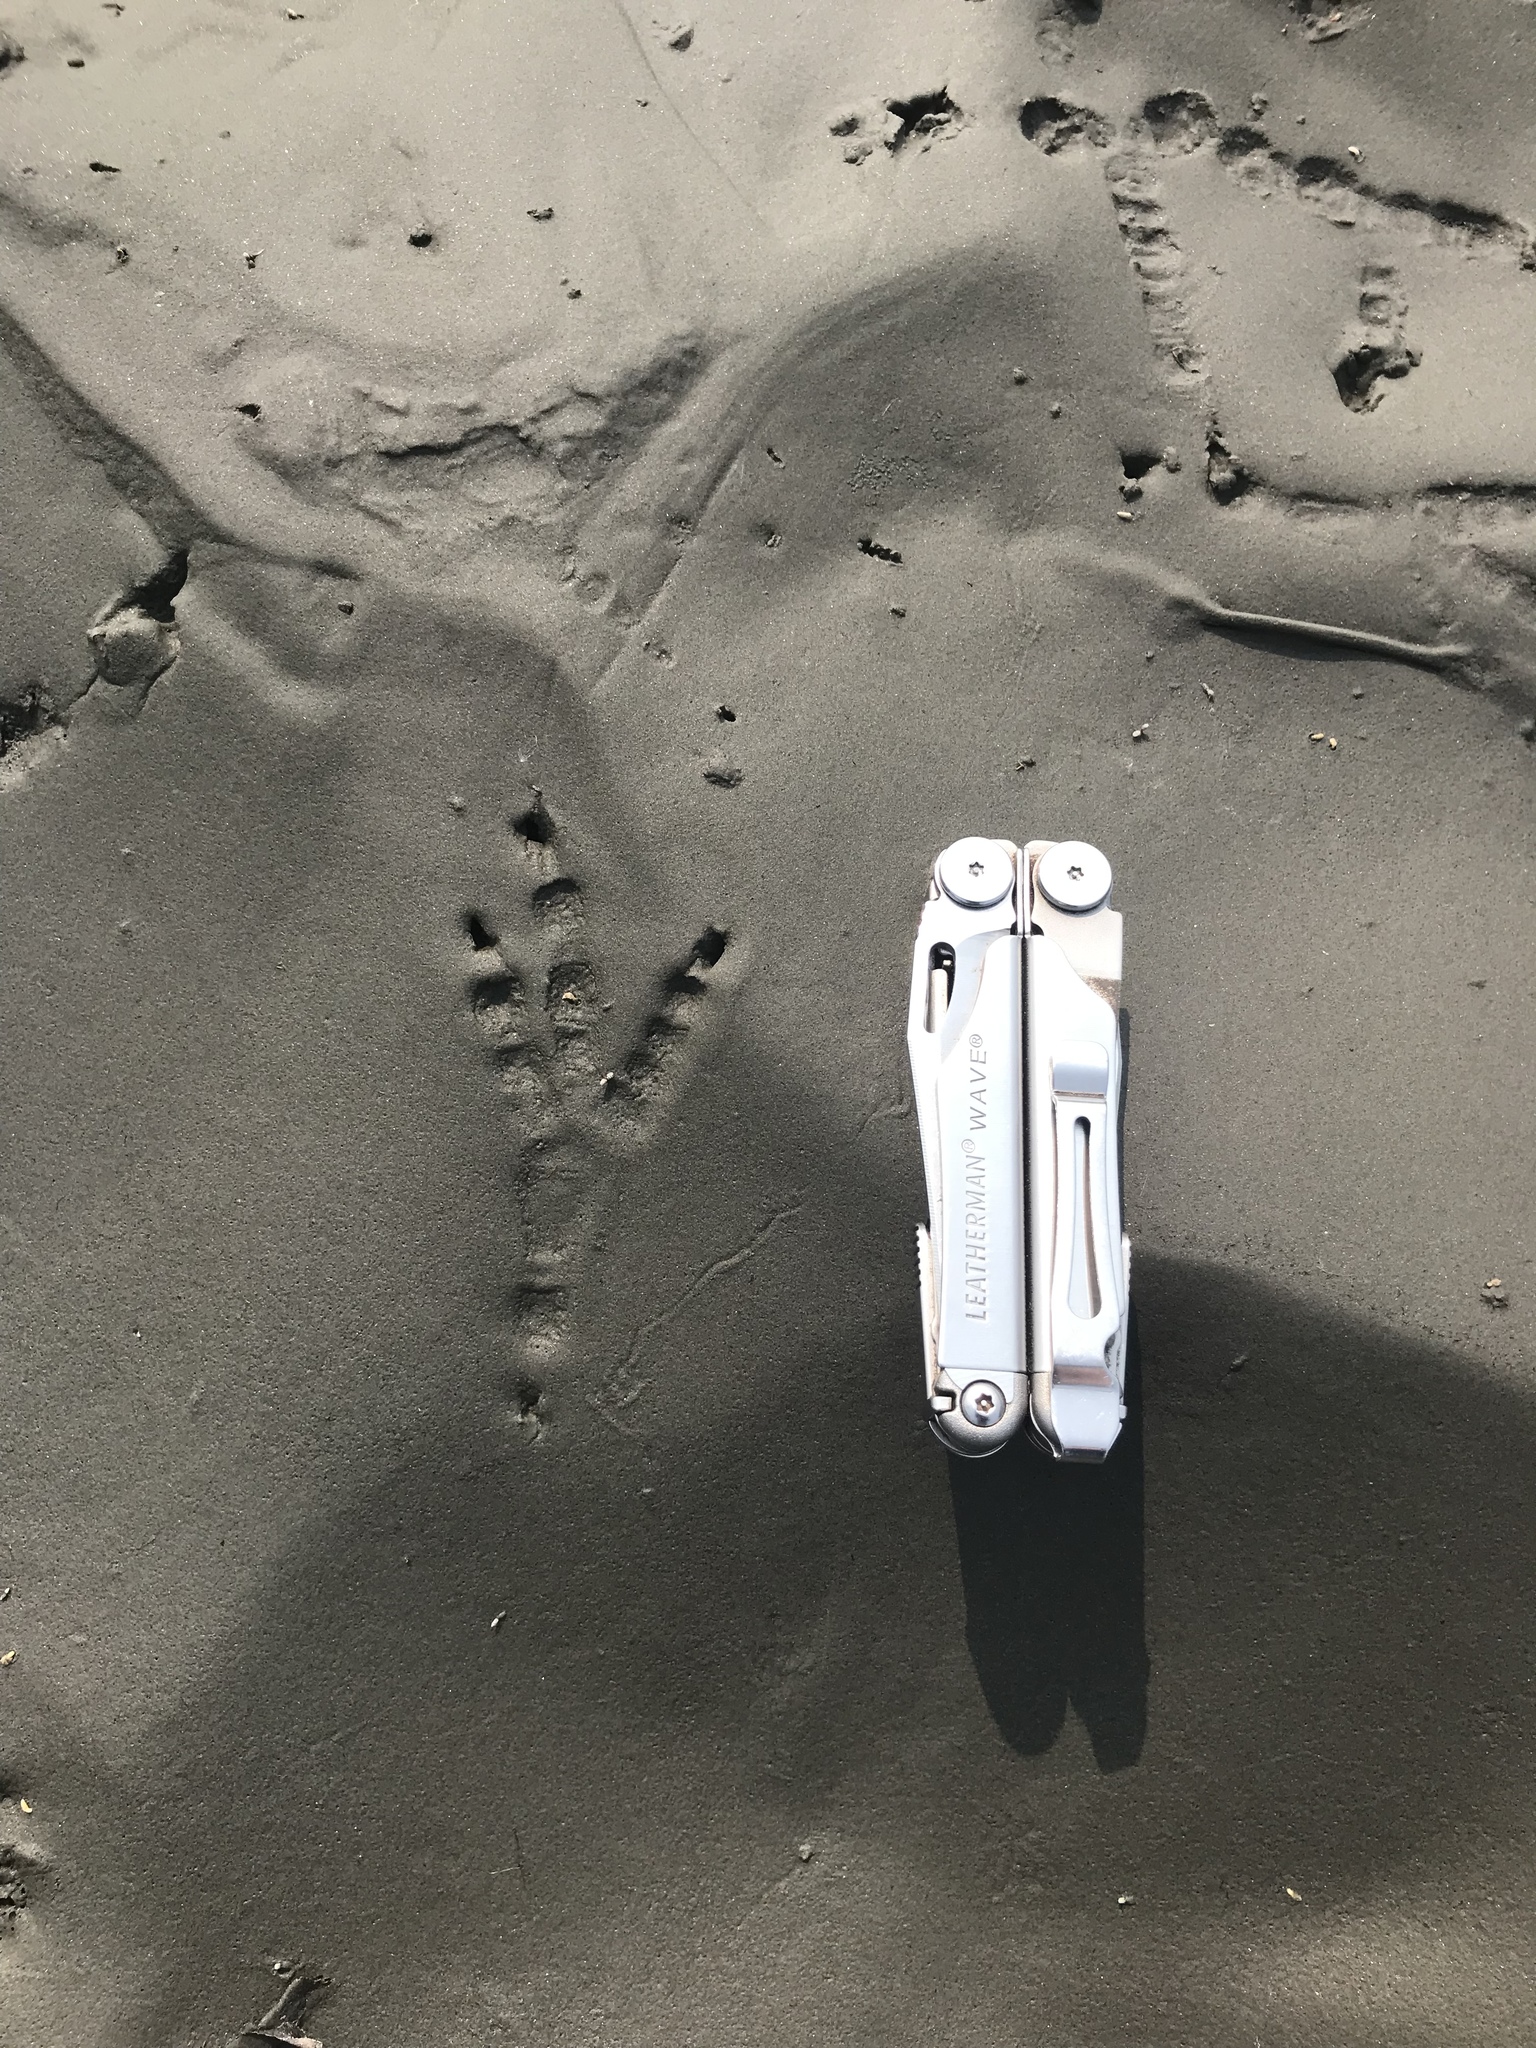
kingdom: Animalia
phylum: Chordata
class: Aves
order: Passeriformes
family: Corvidae
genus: Corvus
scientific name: Corvus corax
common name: Common raven
